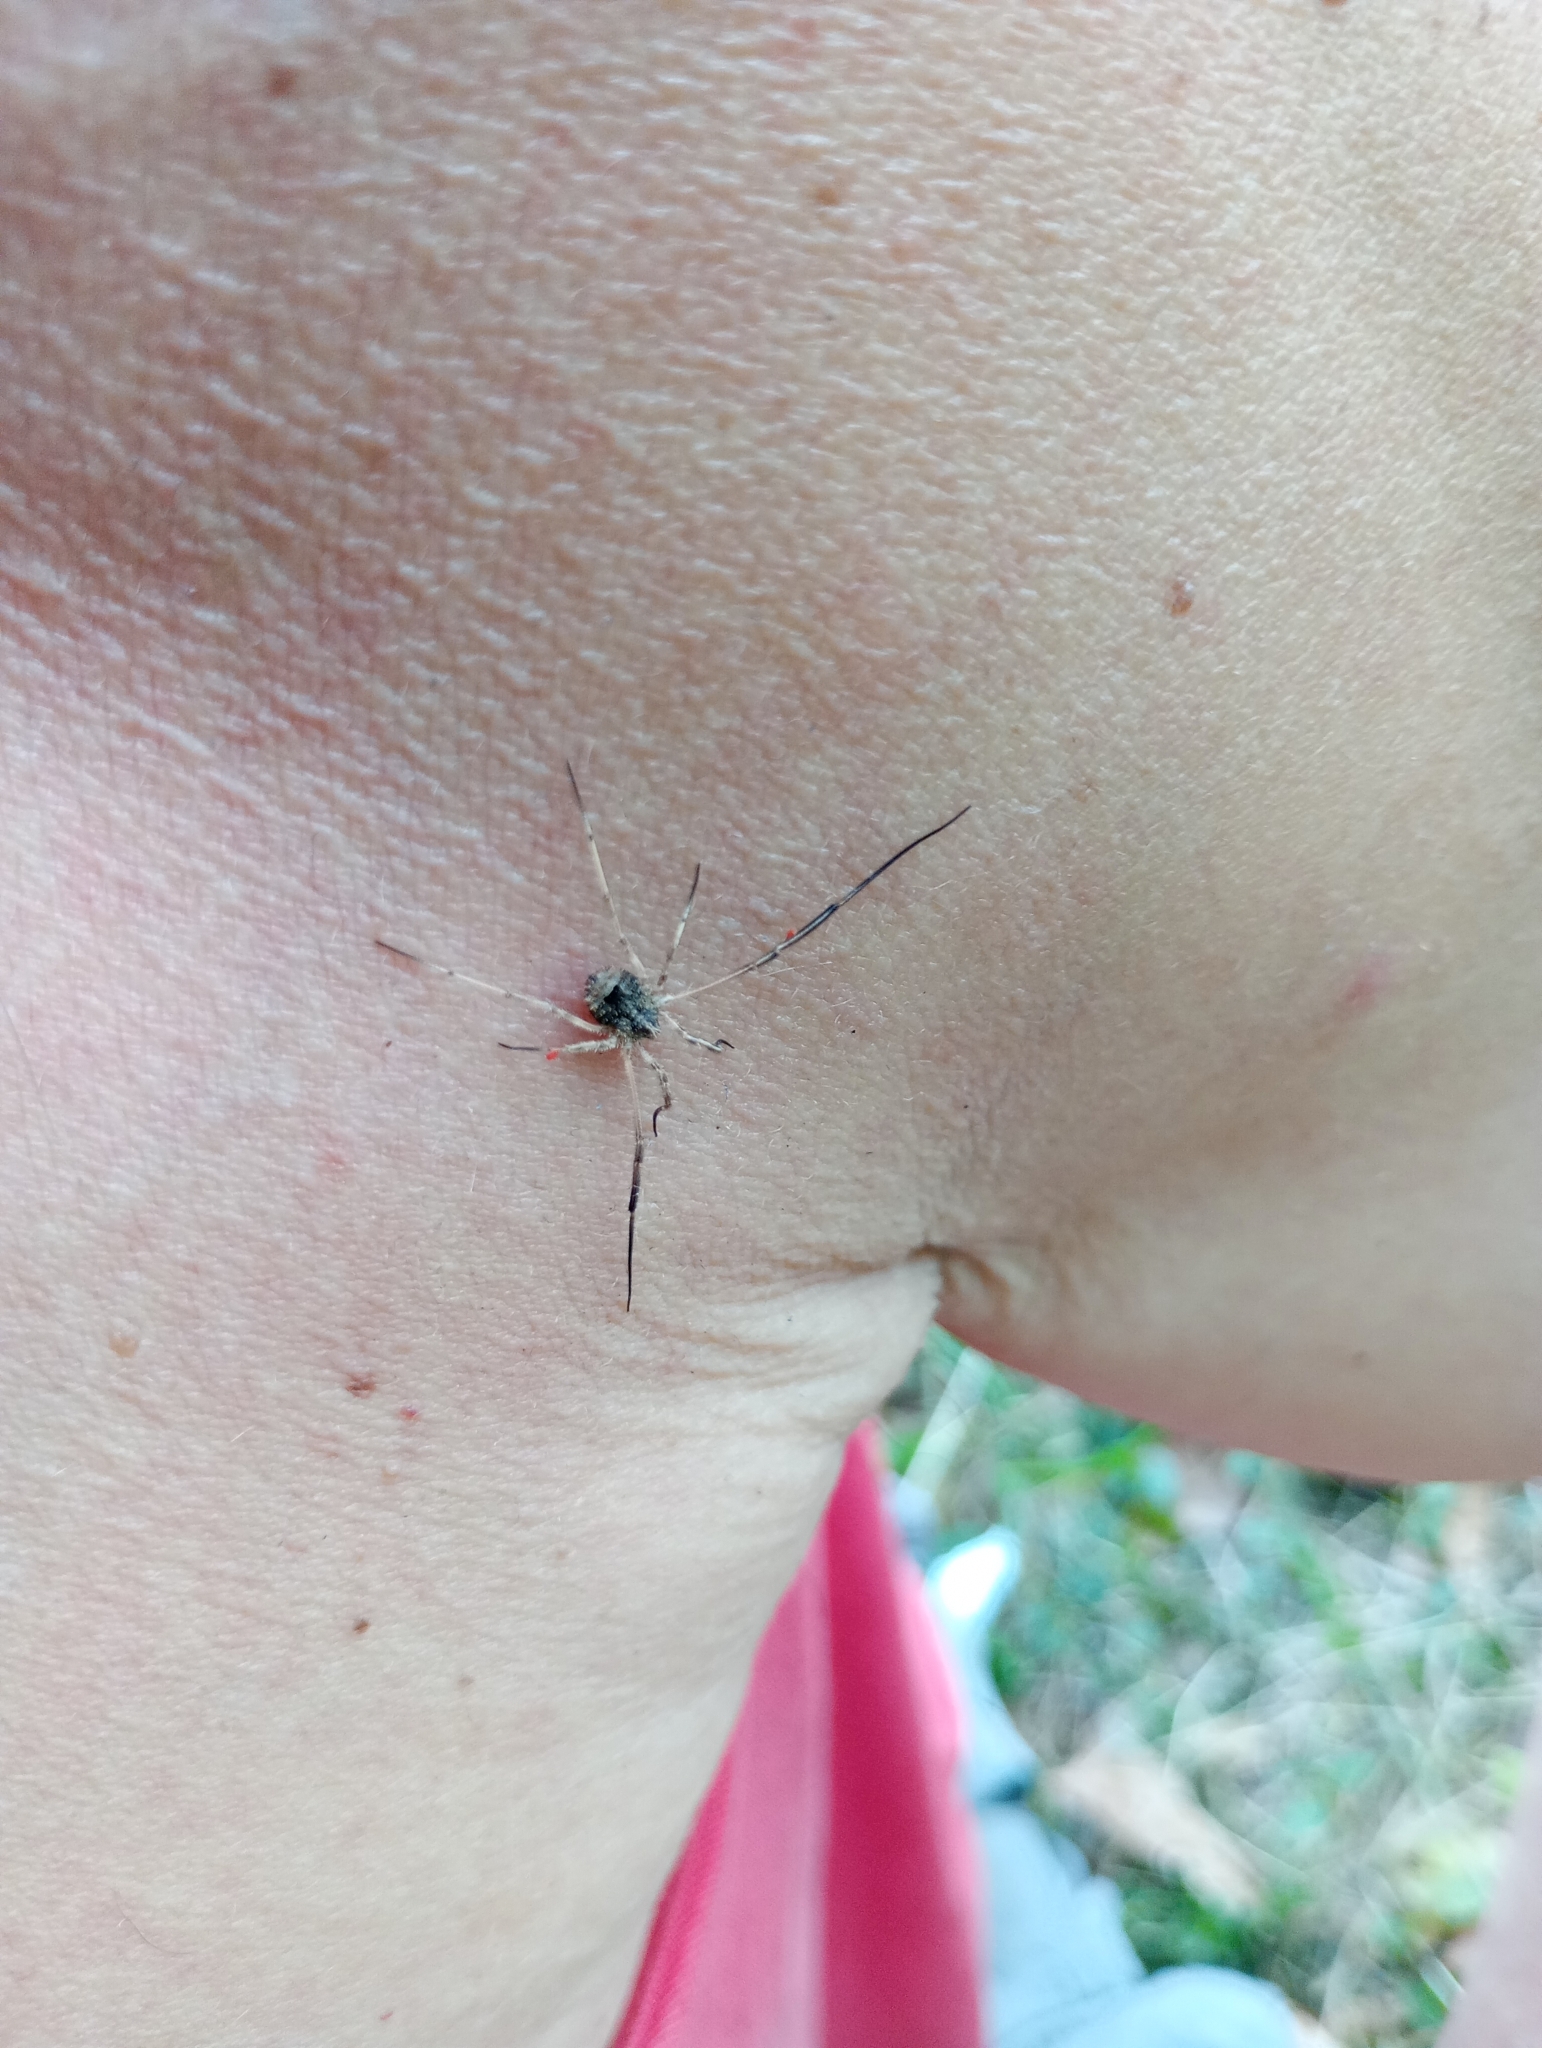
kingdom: Animalia
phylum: Arthropoda
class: Arachnida
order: Opiliones
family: Phalangiidae
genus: Lacinius
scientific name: Lacinius horridus
